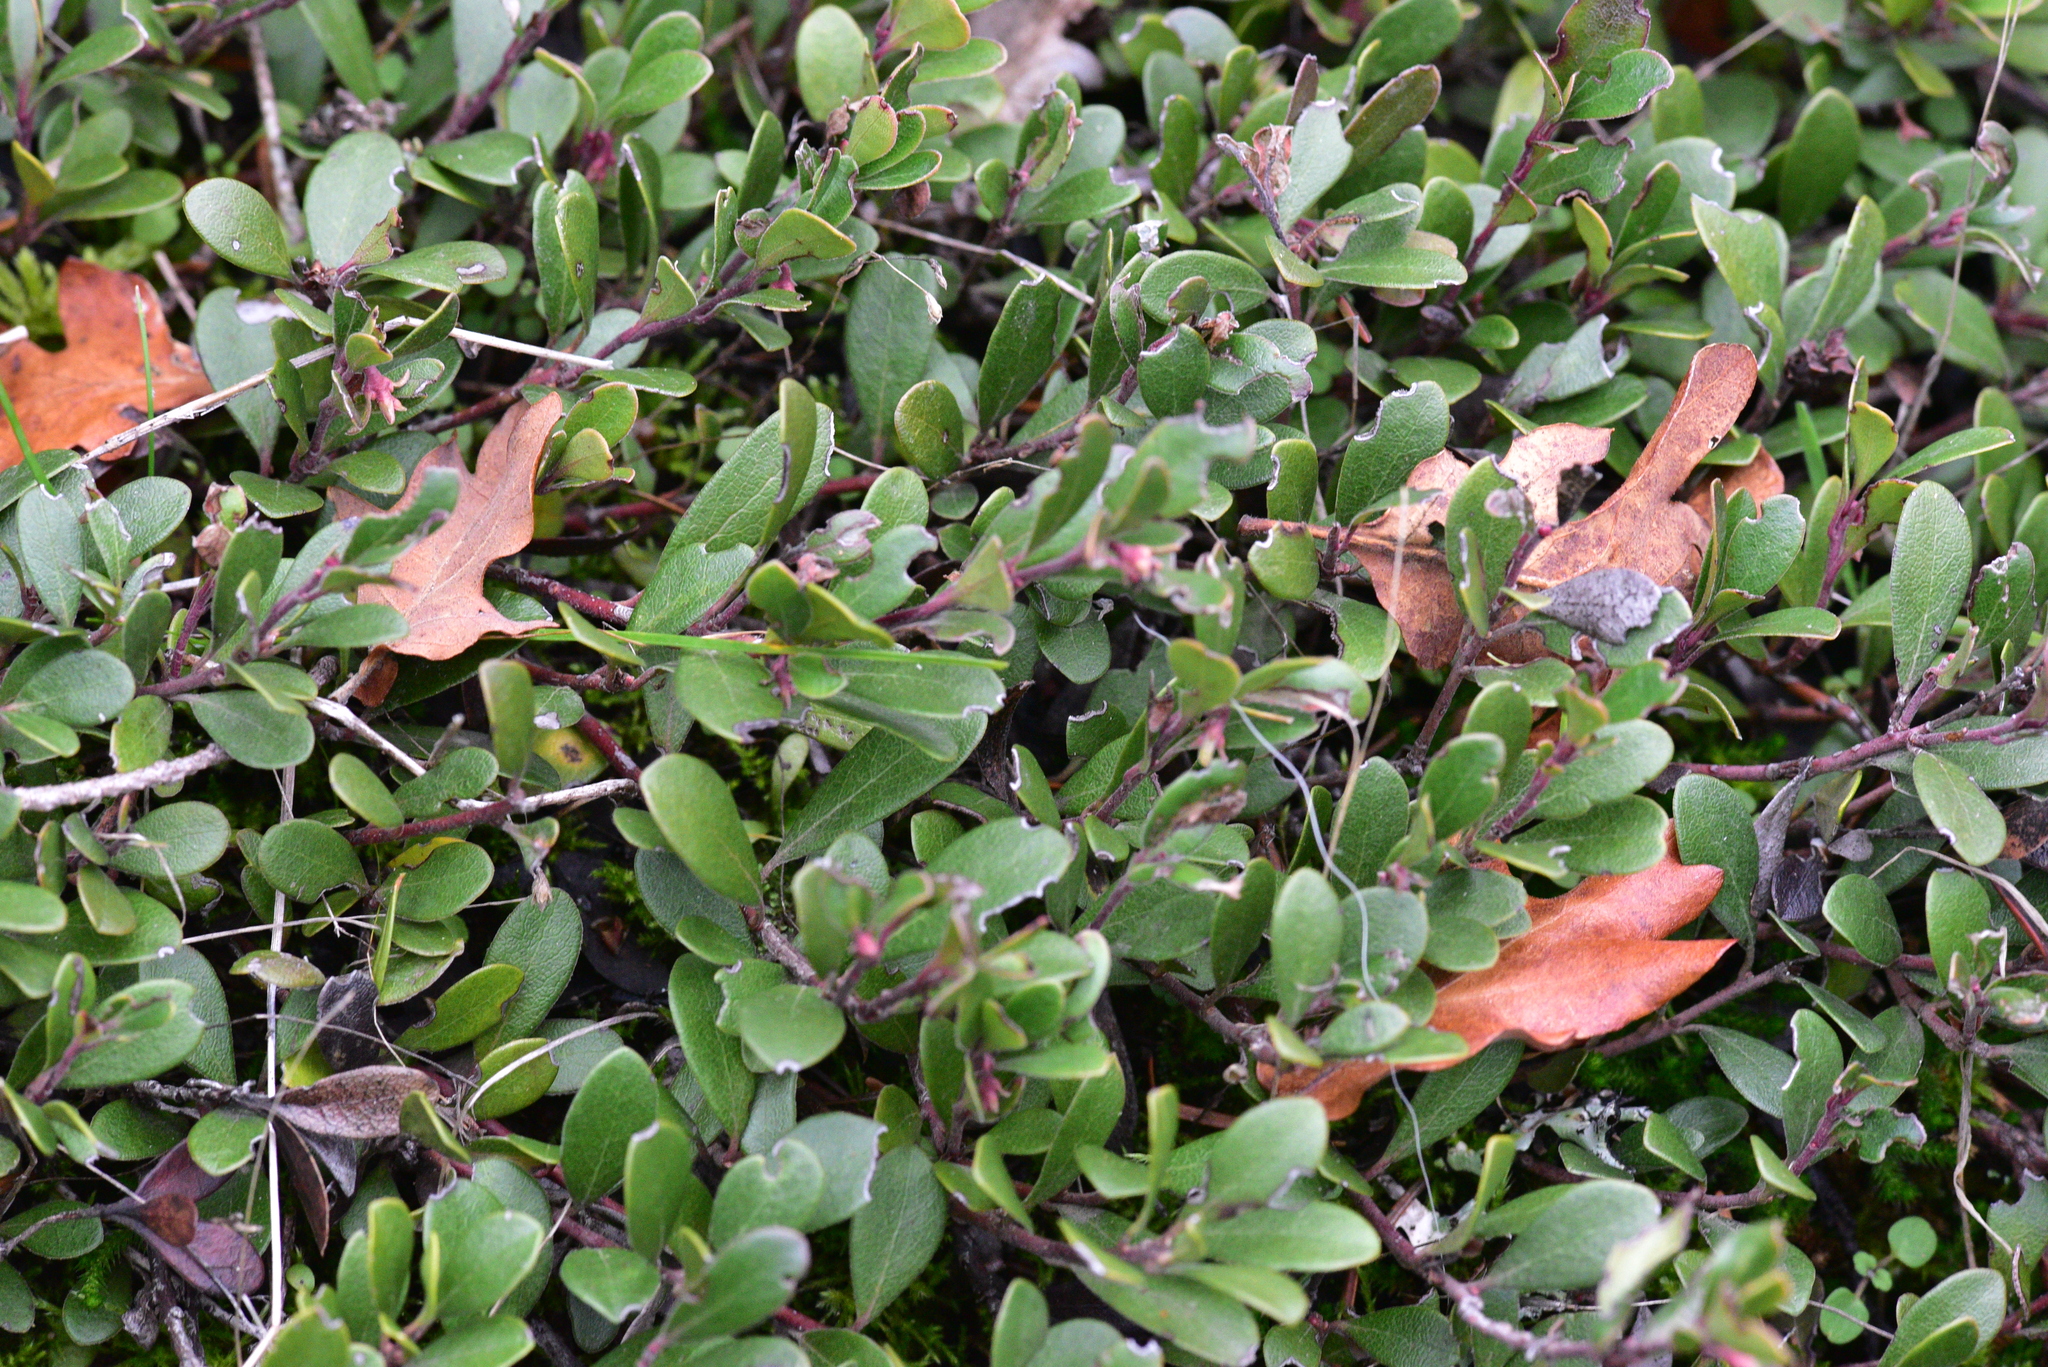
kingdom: Plantae
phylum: Tracheophyta
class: Magnoliopsida
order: Ericales
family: Ericaceae
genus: Arctostaphylos
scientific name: Arctostaphylos uva-ursi
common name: Bearberry
